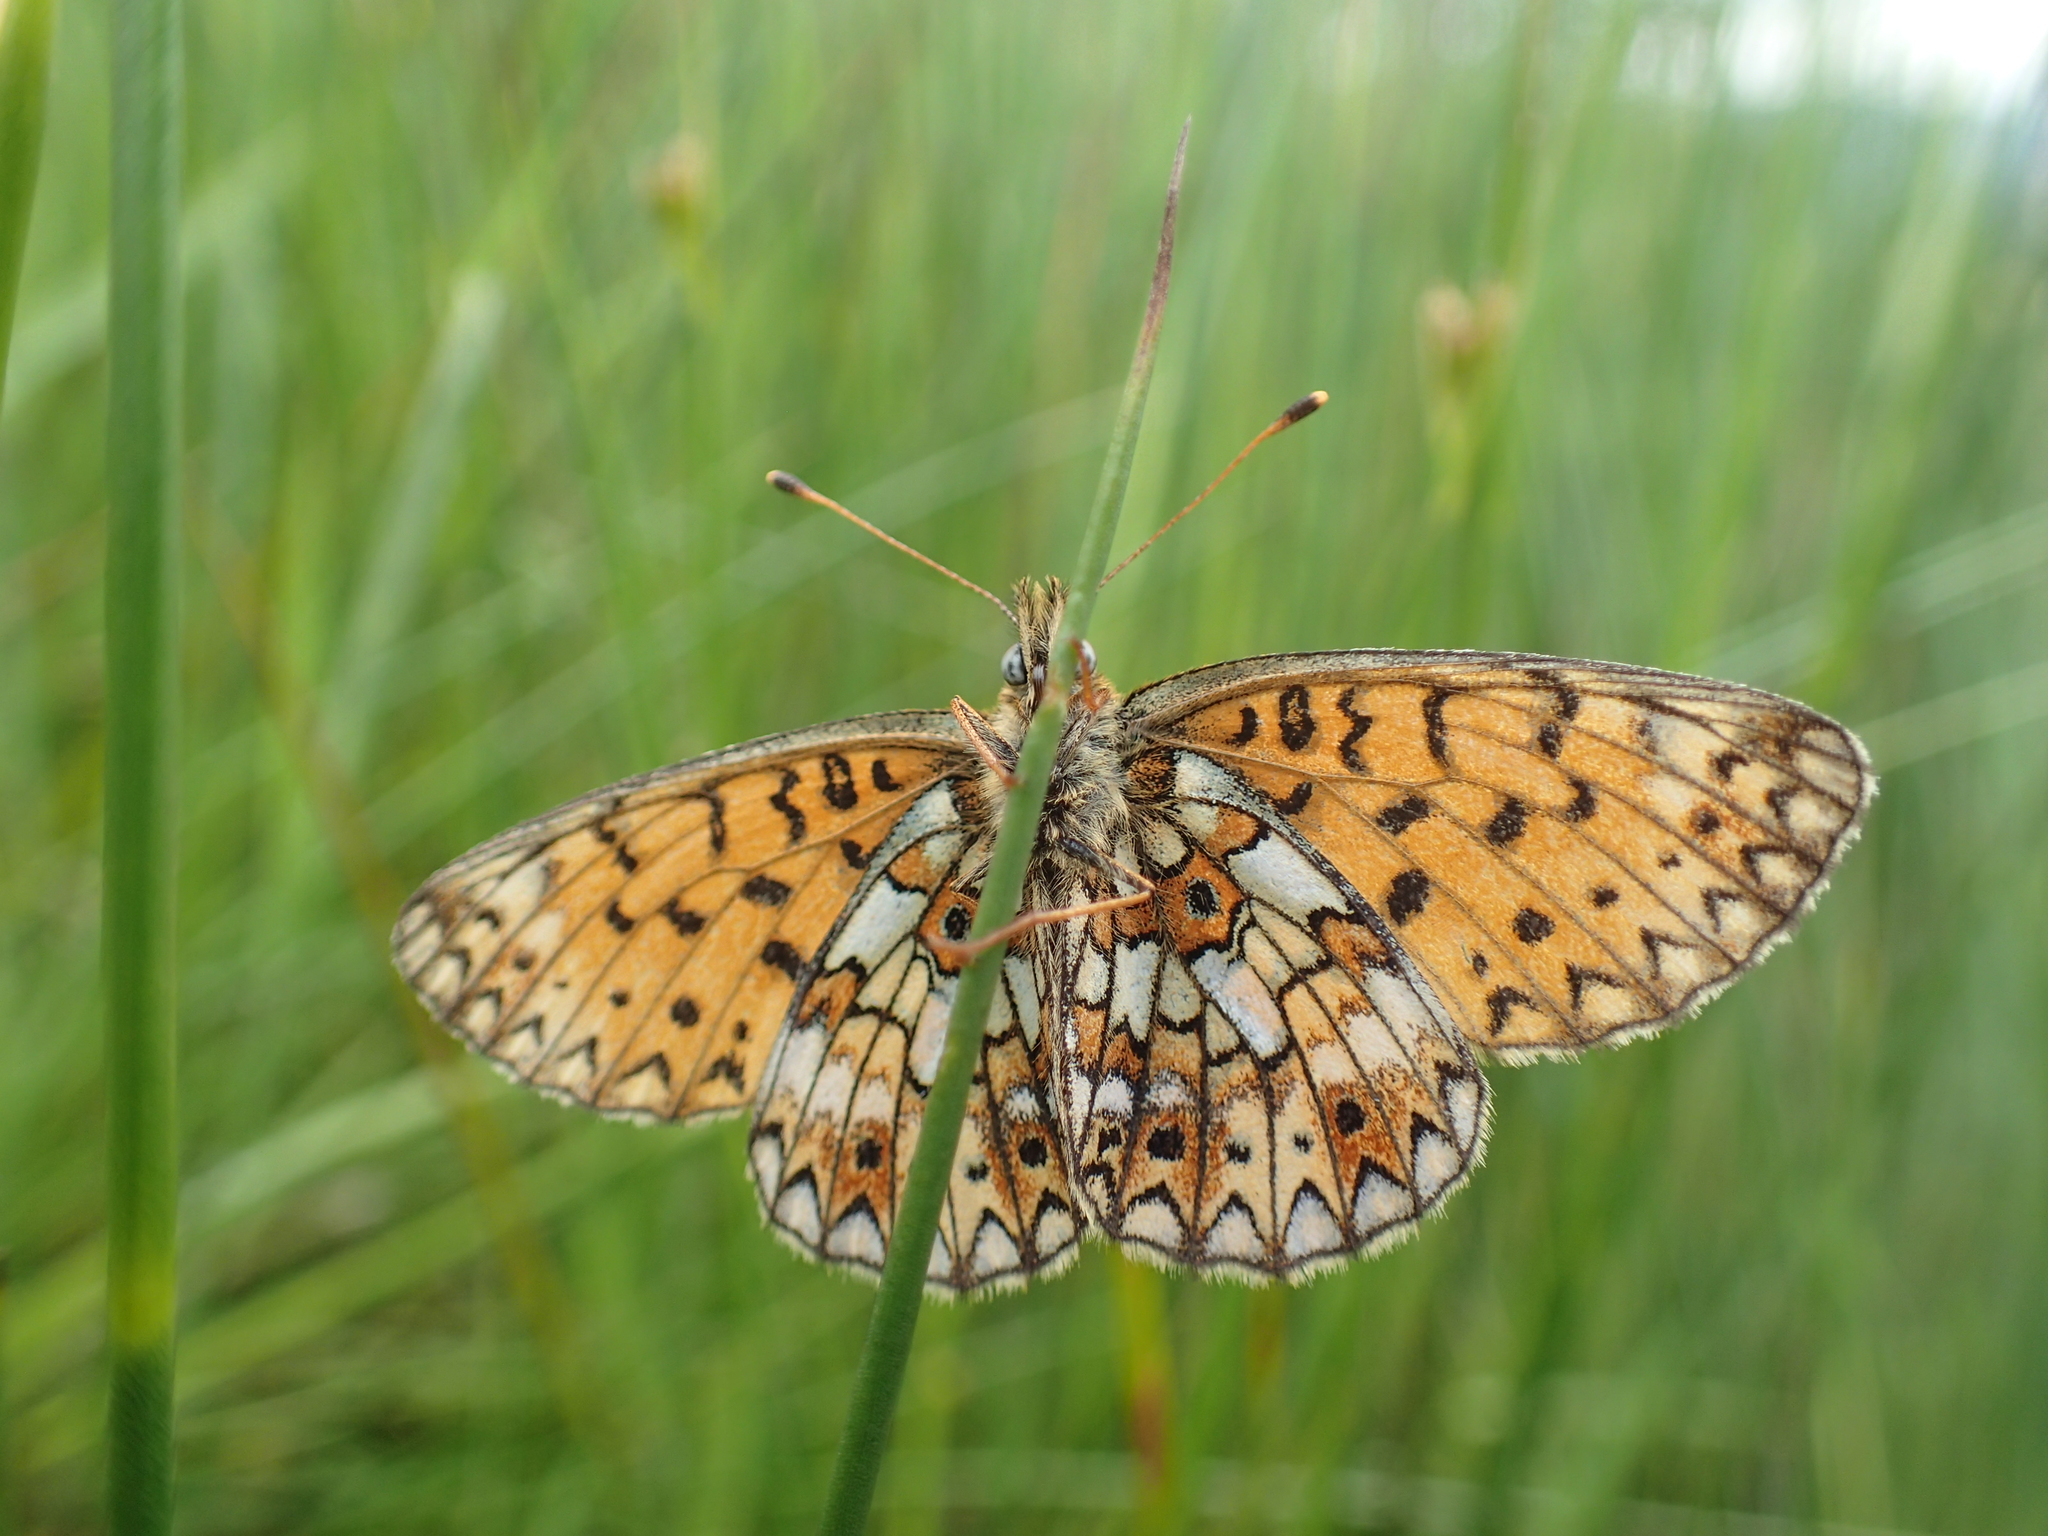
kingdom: Animalia
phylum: Arthropoda
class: Insecta
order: Lepidoptera
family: Nymphalidae
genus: Boloria
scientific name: Boloria selene
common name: Small pearl-bordered fritillary
